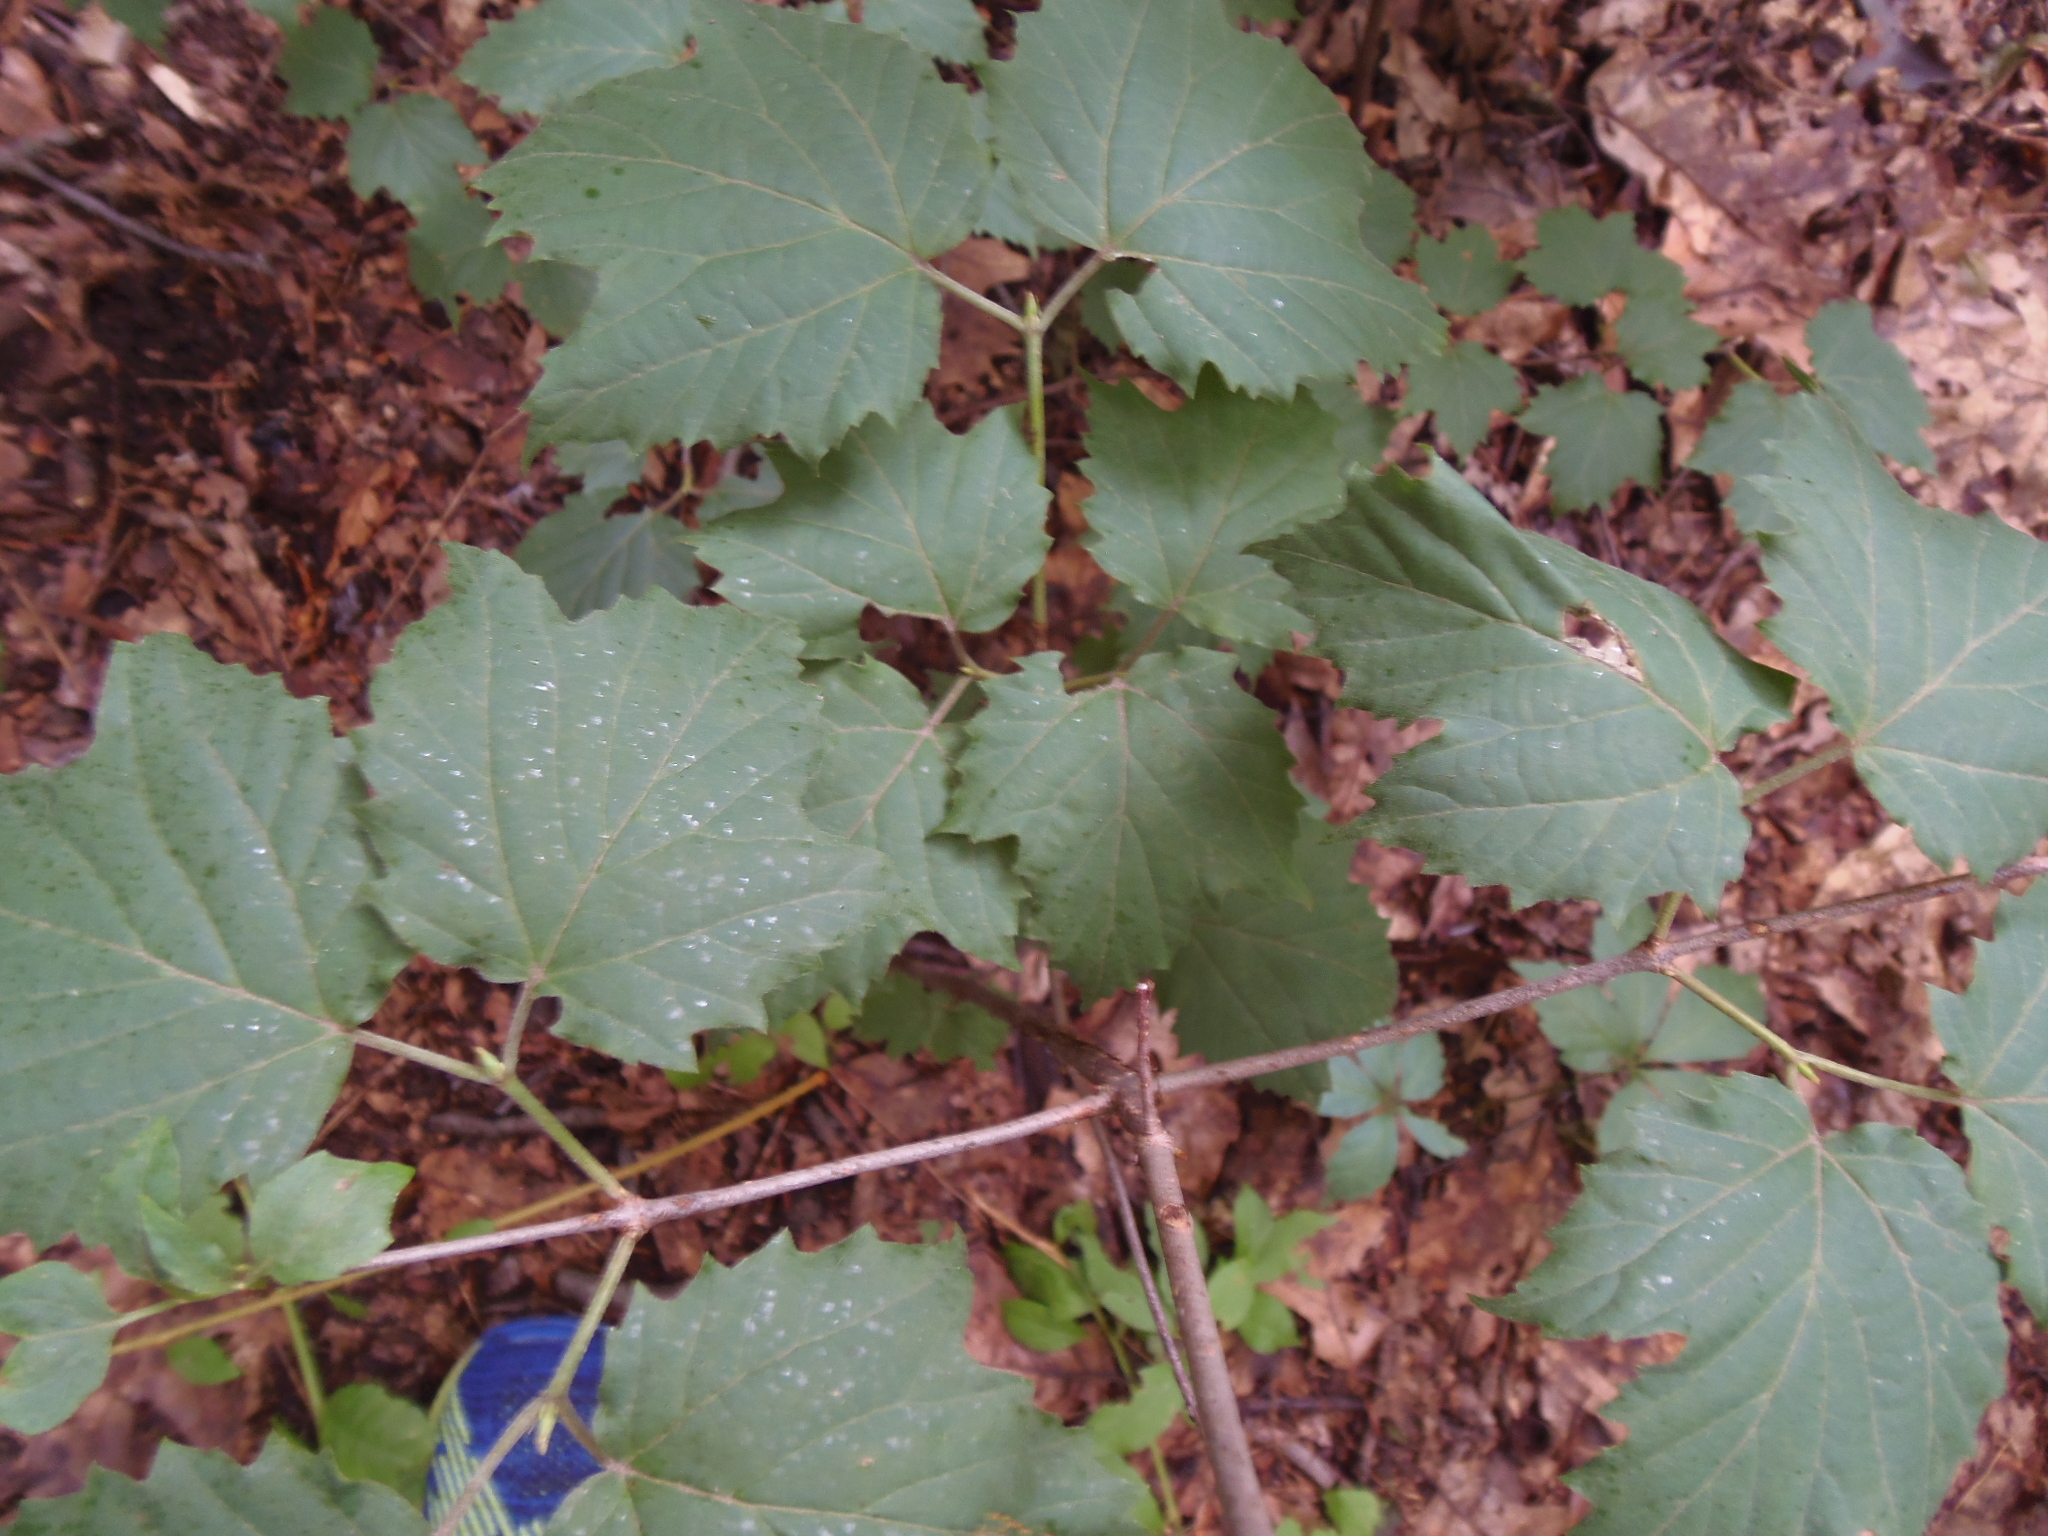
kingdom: Plantae
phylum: Tracheophyta
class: Magnoliopsida
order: Dipsacales
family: Viburnaceae
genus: Viburnum
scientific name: Viburnum acerifolium
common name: Dockmackie
